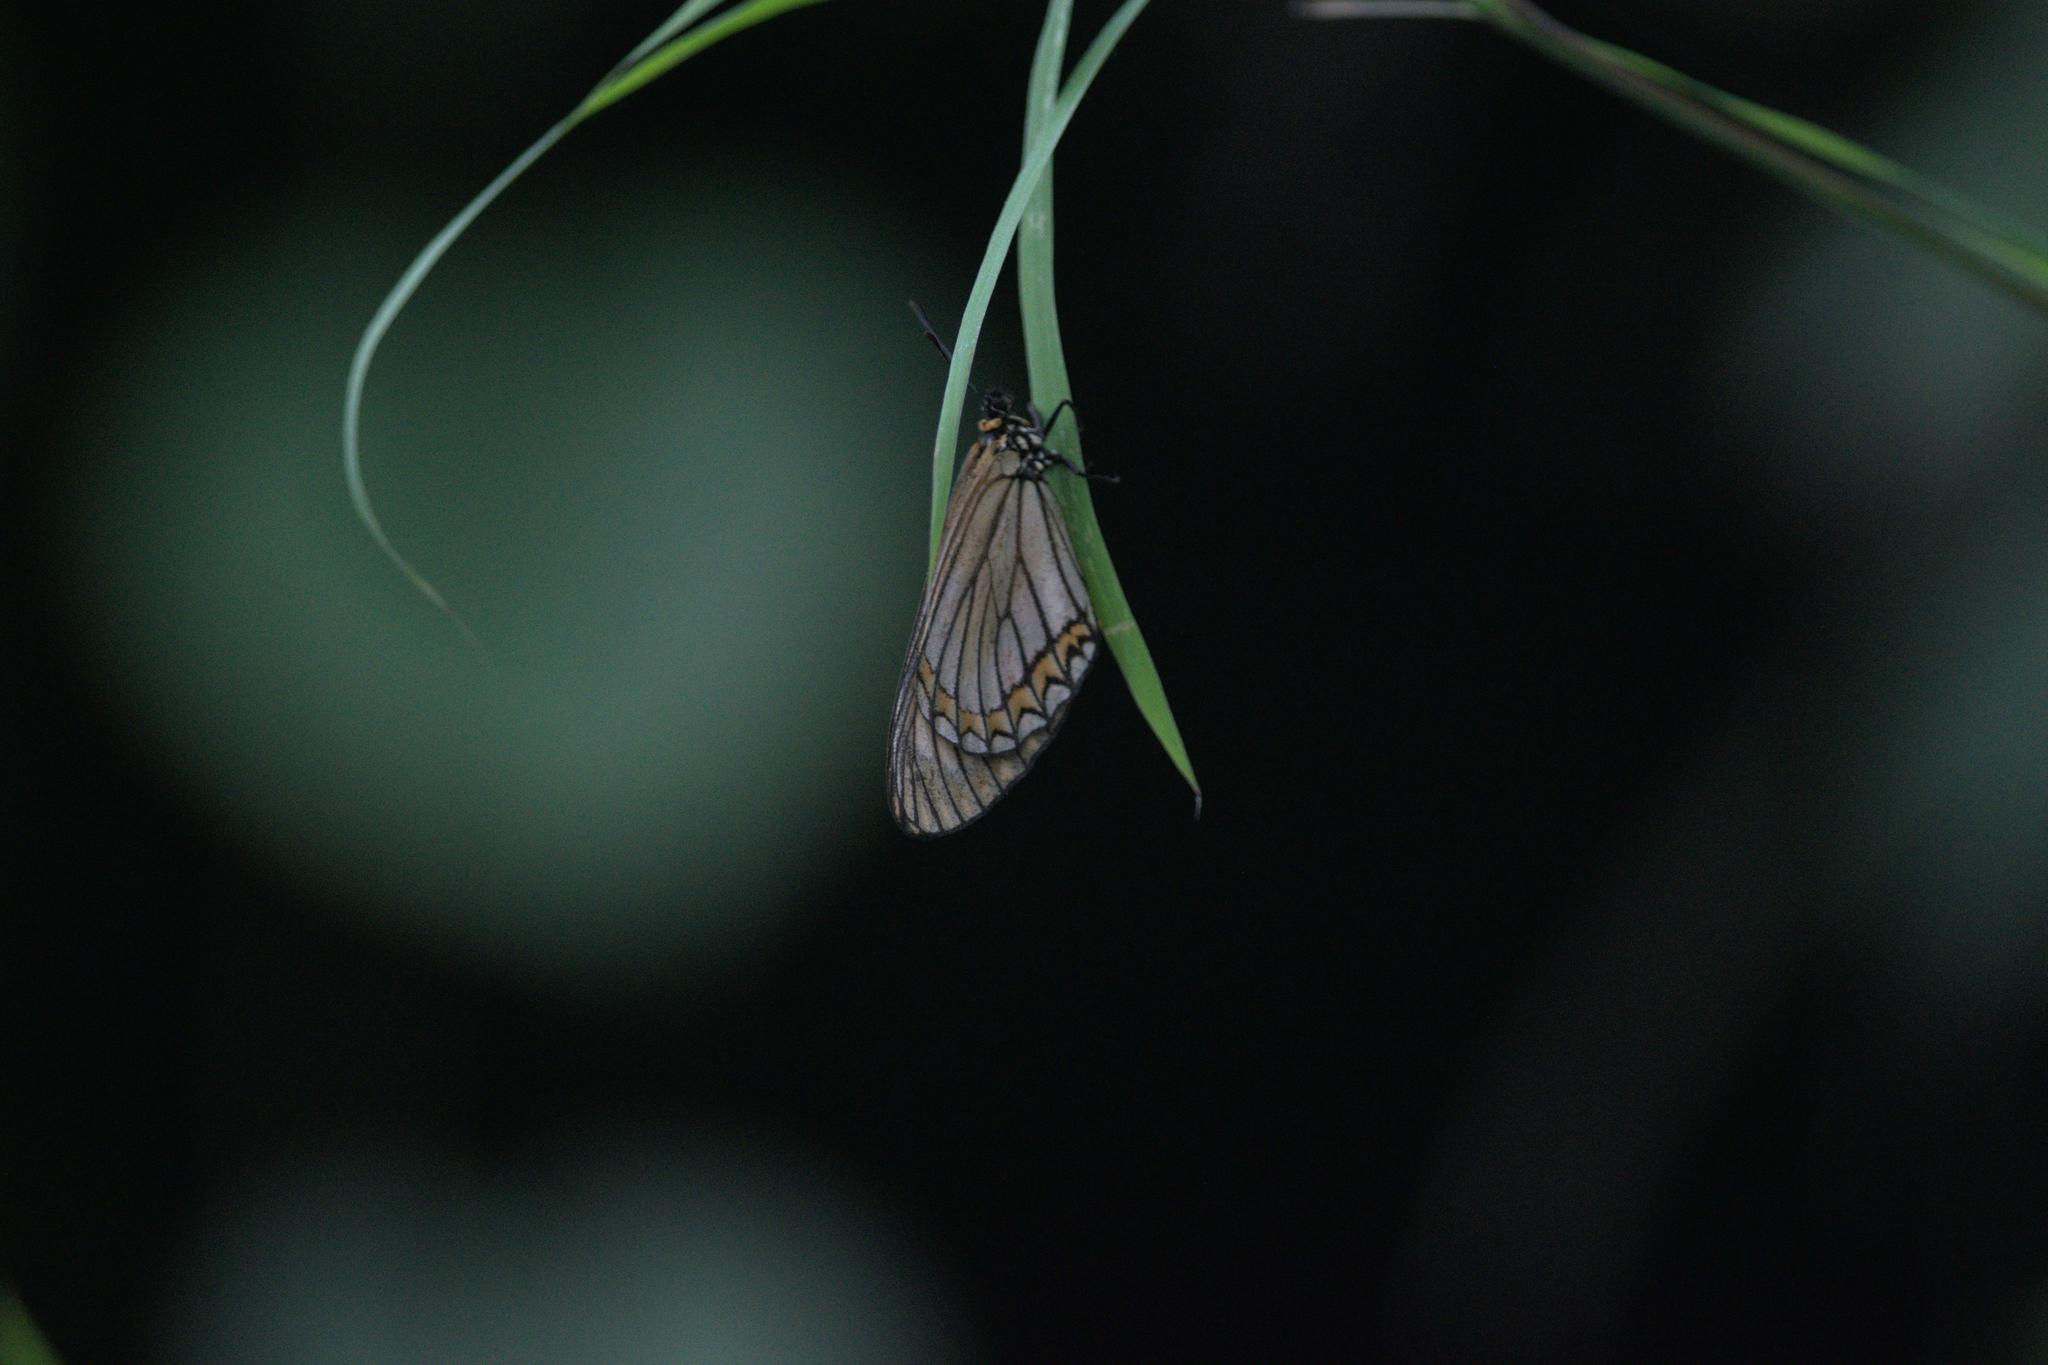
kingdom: Animalia
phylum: Arthropoda
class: Insecta
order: Lepidoptera
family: Nymphalidae
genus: Acraea
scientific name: Acraea Telchinia issoria
